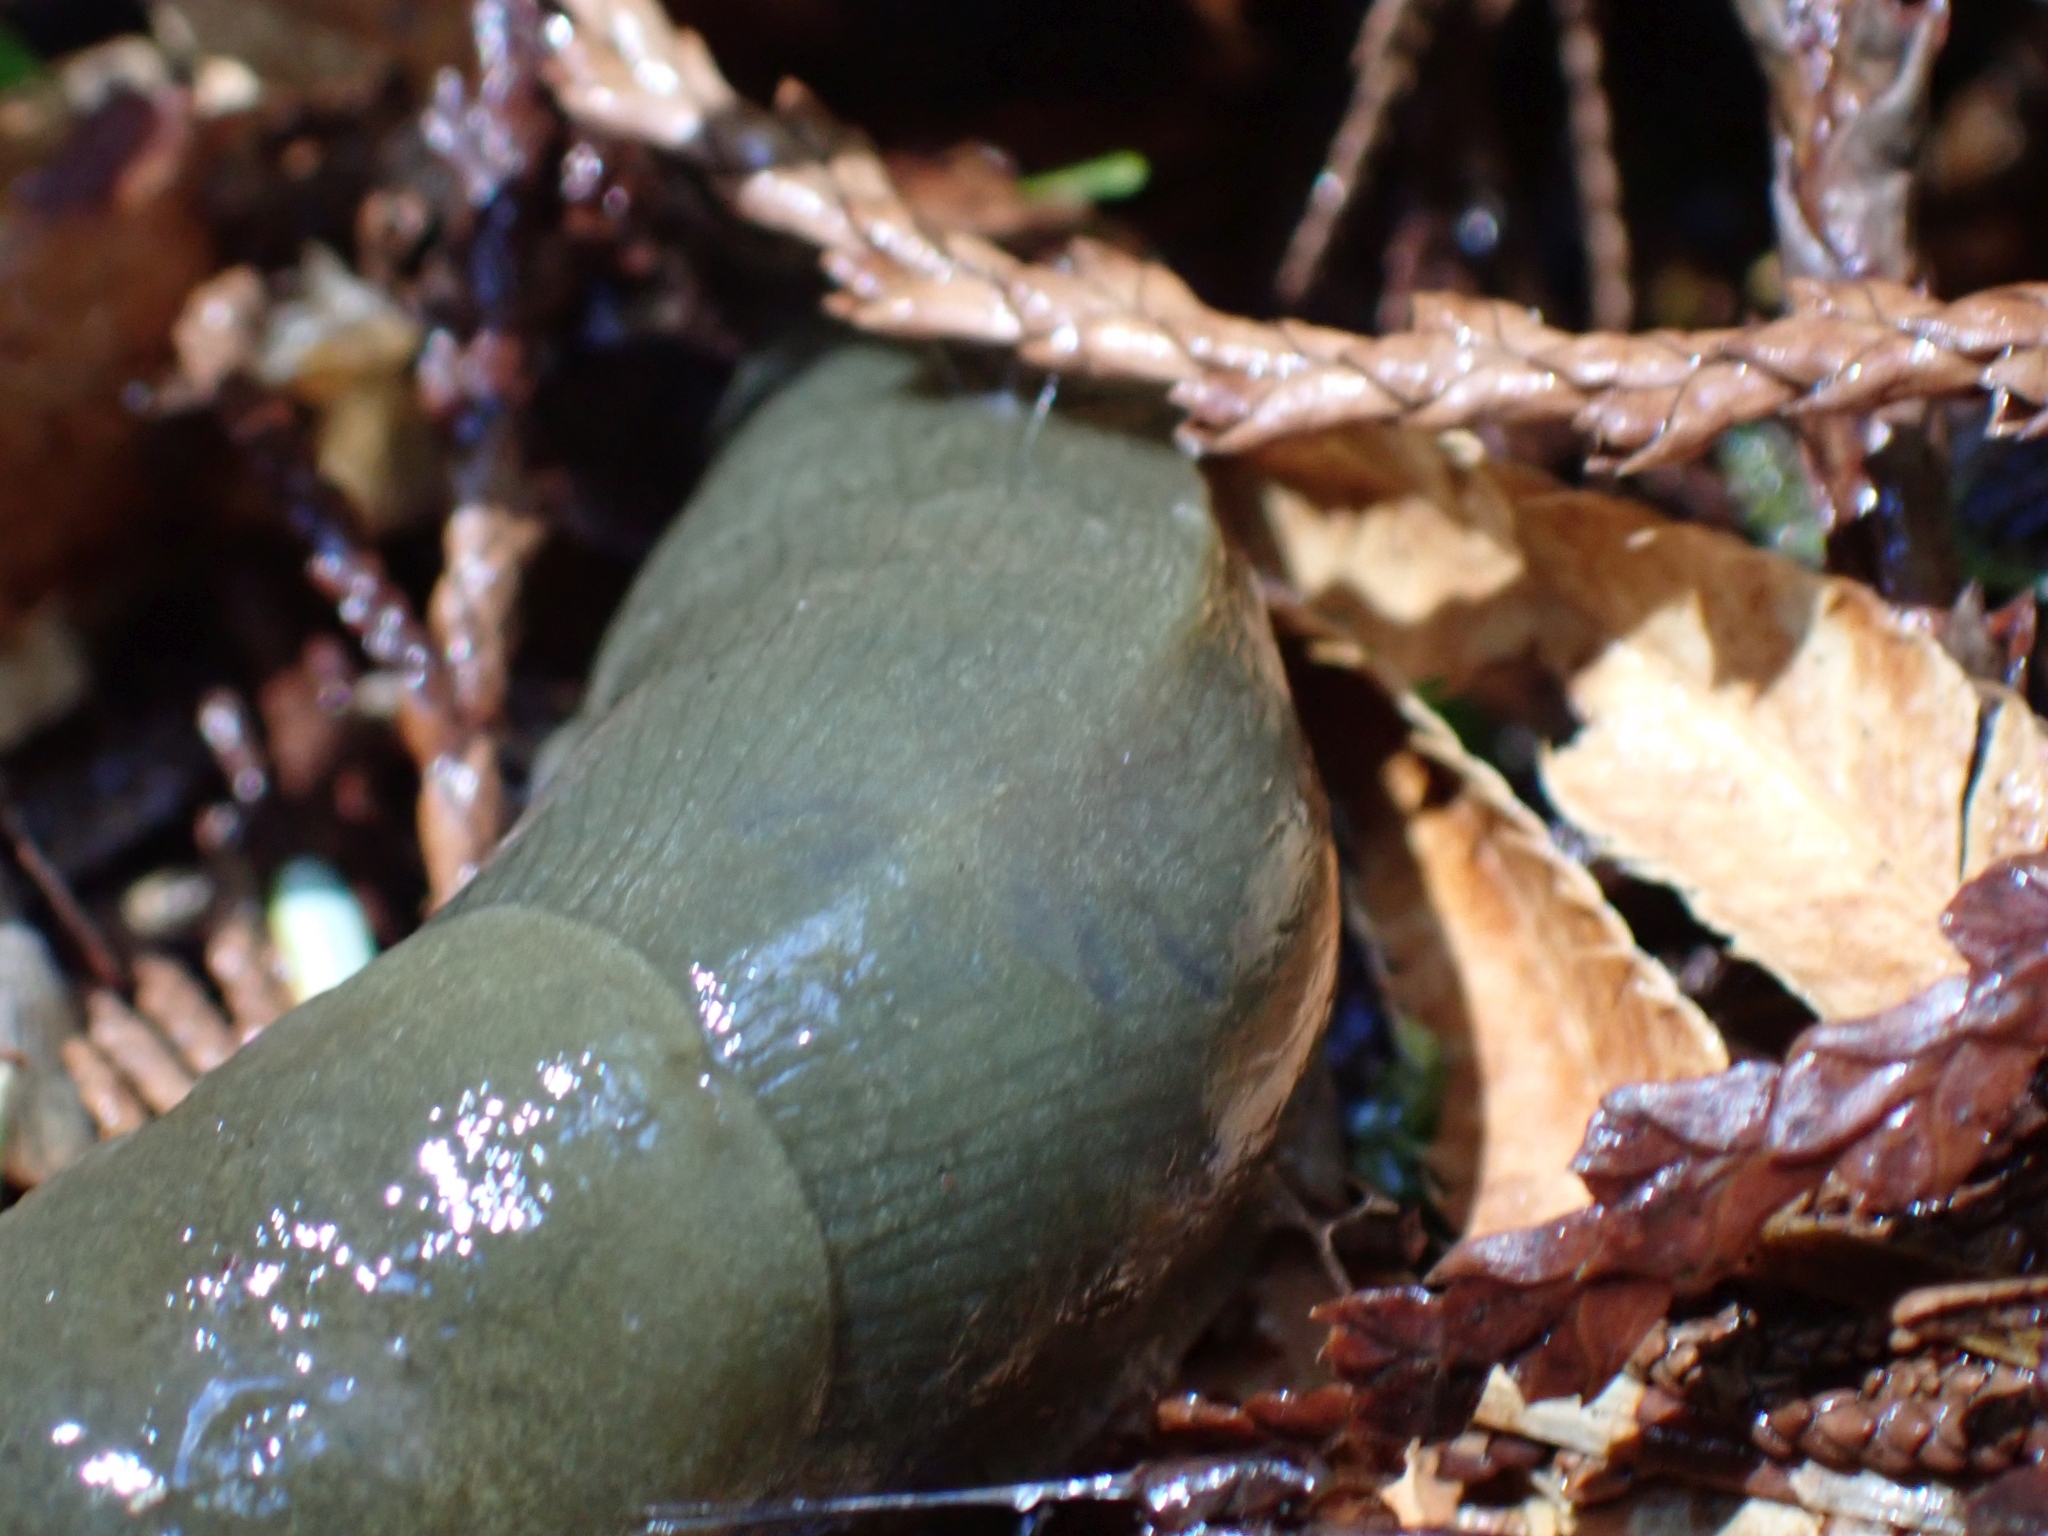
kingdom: Animalia
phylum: Mollusca
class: Gastropoda
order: Stylommatophora
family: Ariolimacidae
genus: Ariolimax
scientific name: Ariolimax columbianus
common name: Pacific banana slug
